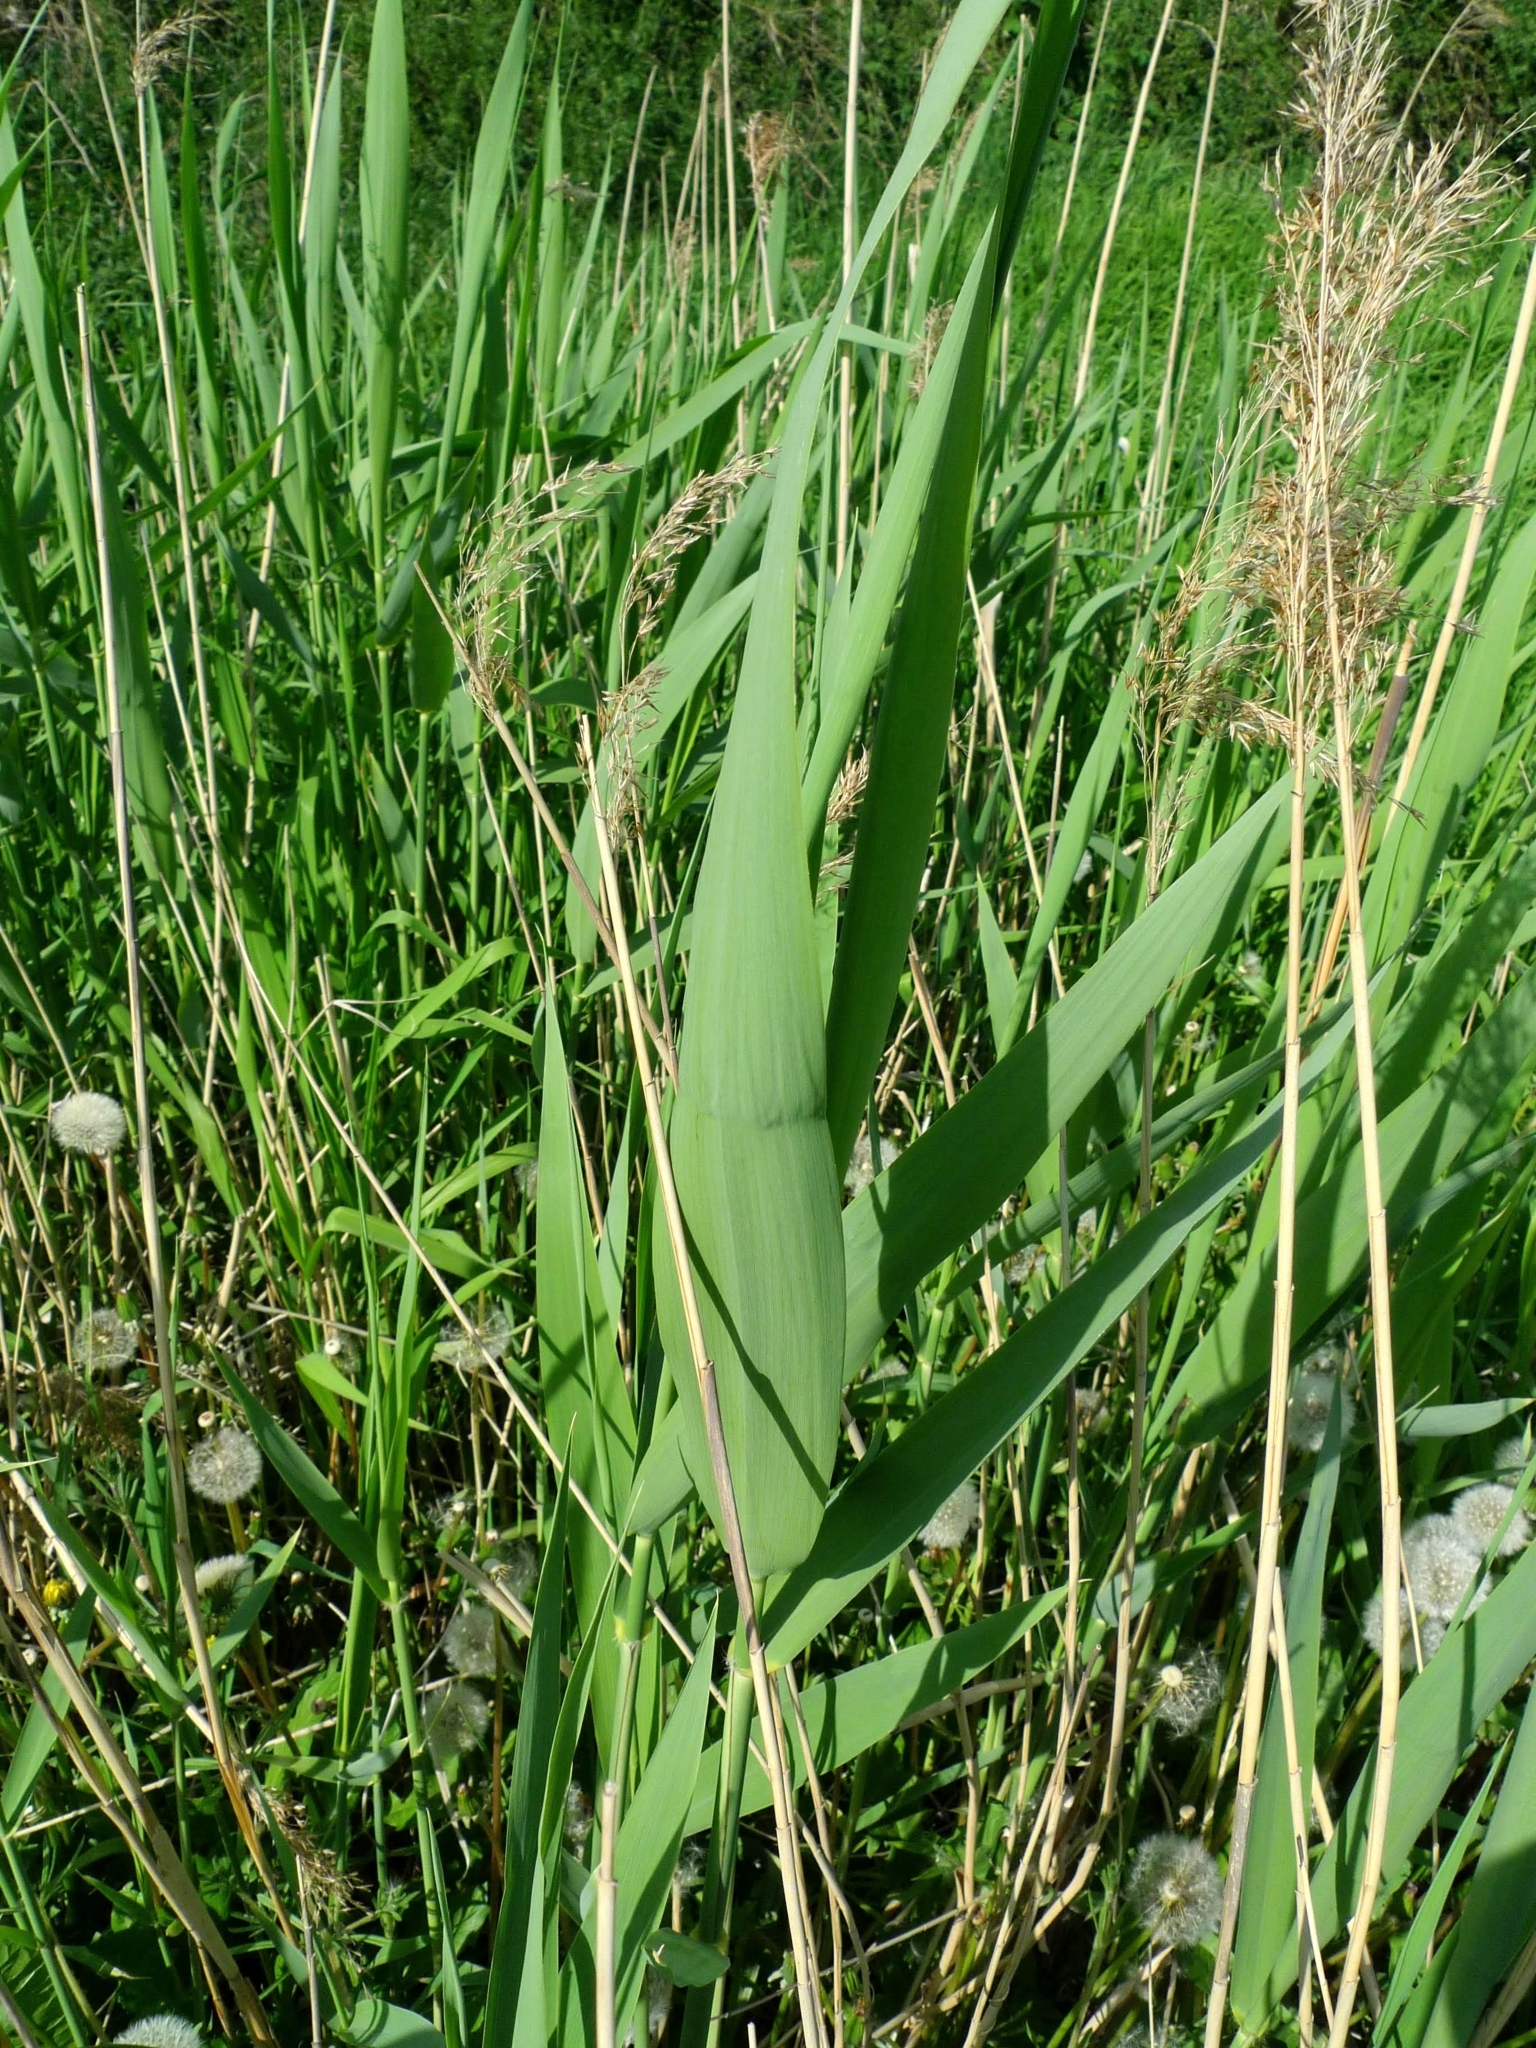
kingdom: Plantae
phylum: Tracheophyta
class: Liliopsida
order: Poales
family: Poaceae
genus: Phragmites
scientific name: Phragmites australis
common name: Common reed
